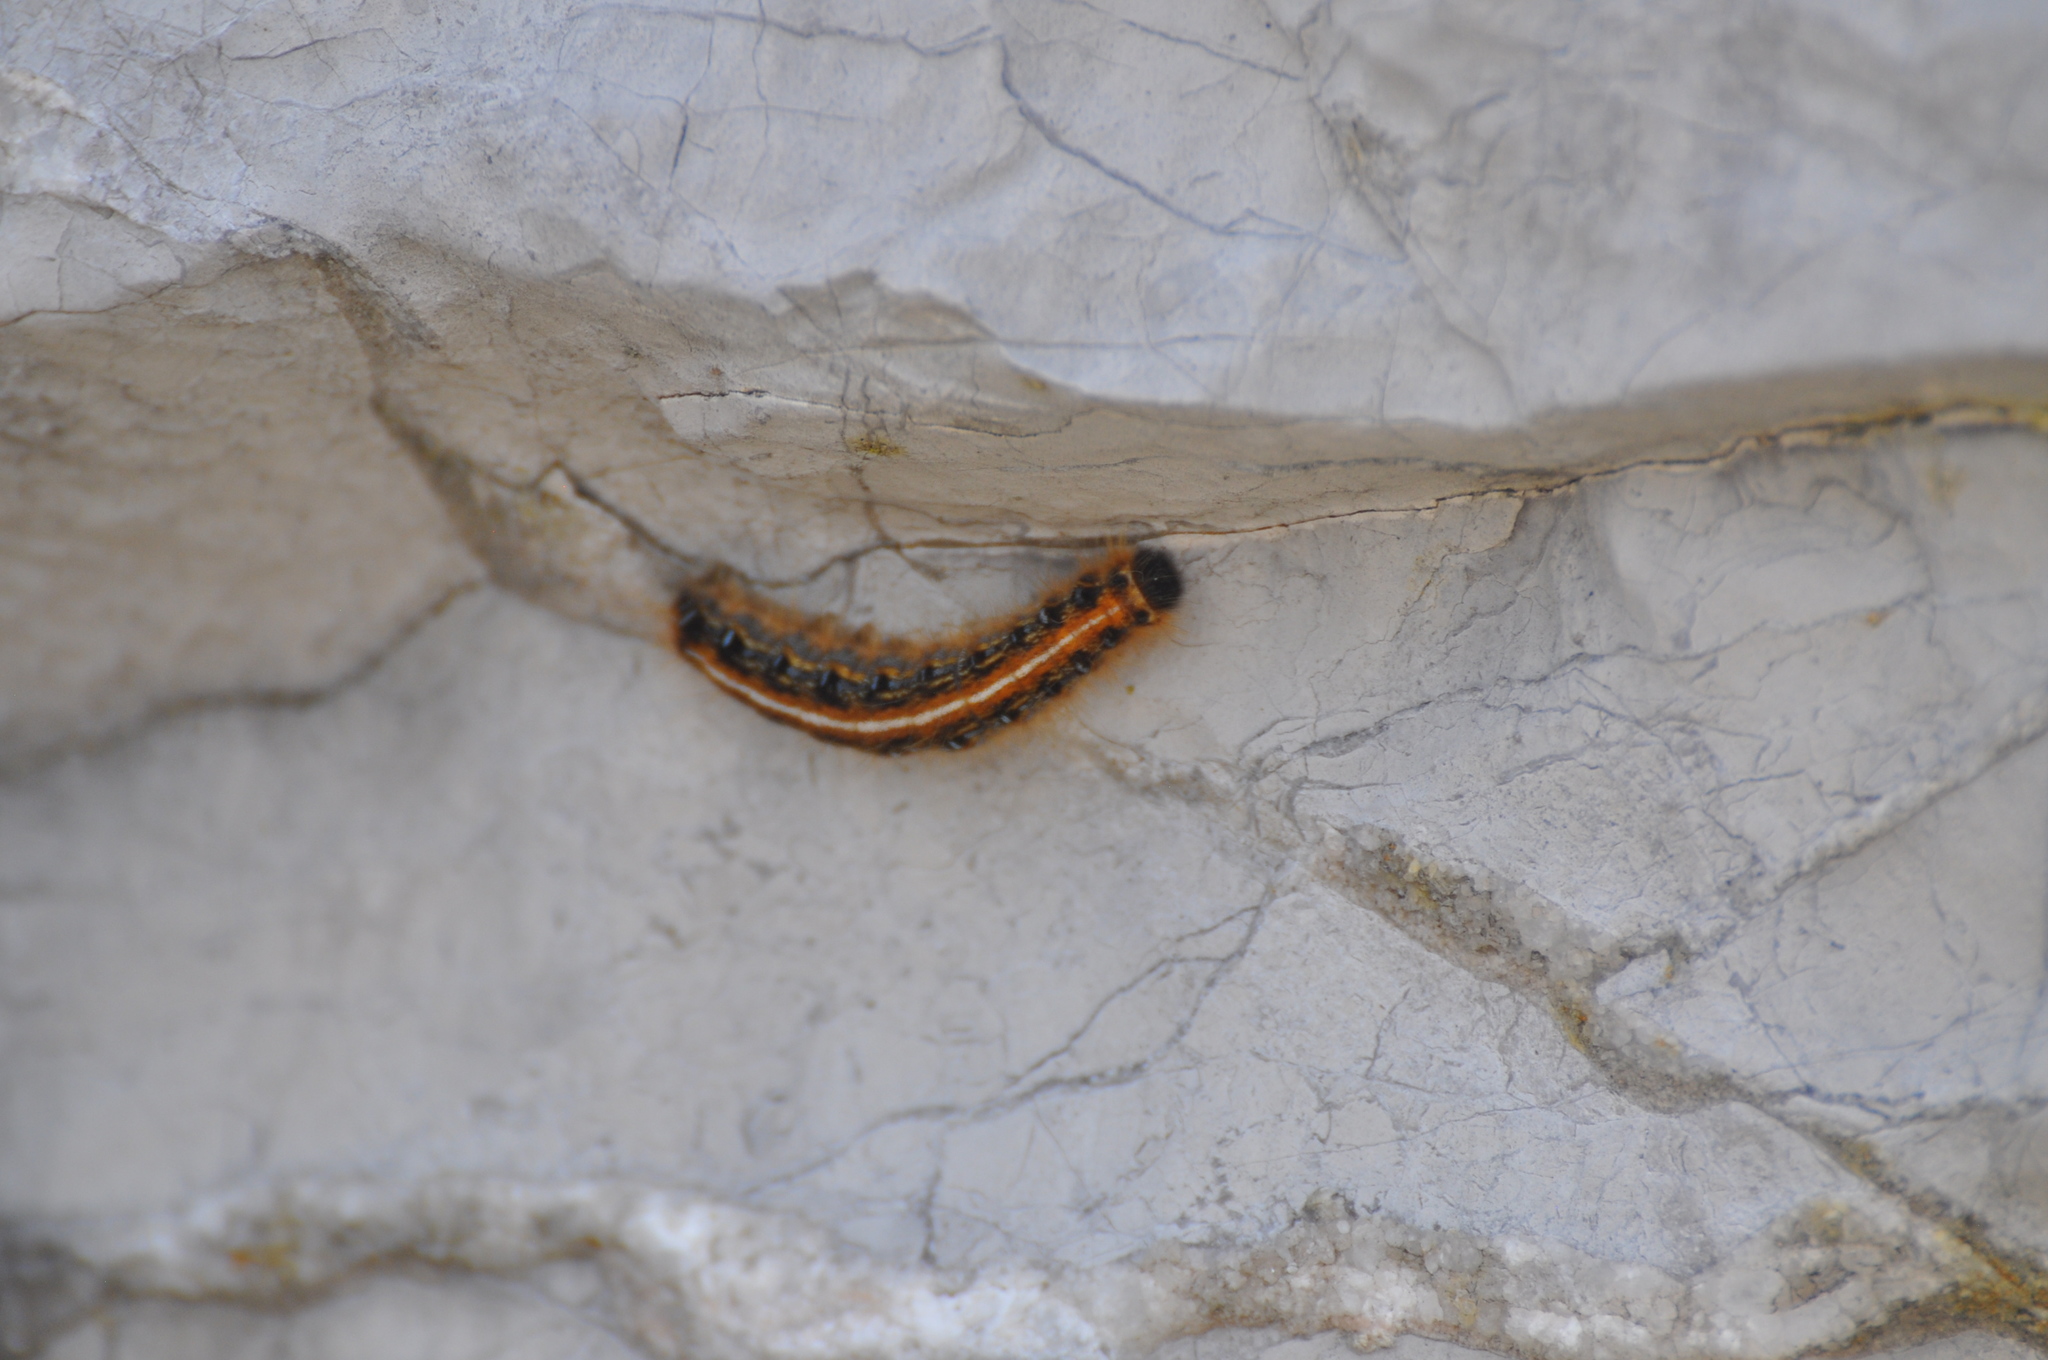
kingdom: Animalia
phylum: Arthropoda
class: Insecta
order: Lepidoptera
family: Lasiocampidae
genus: Malacosoma
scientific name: Malacosoma americana
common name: Eastern tent caterpillar moth
